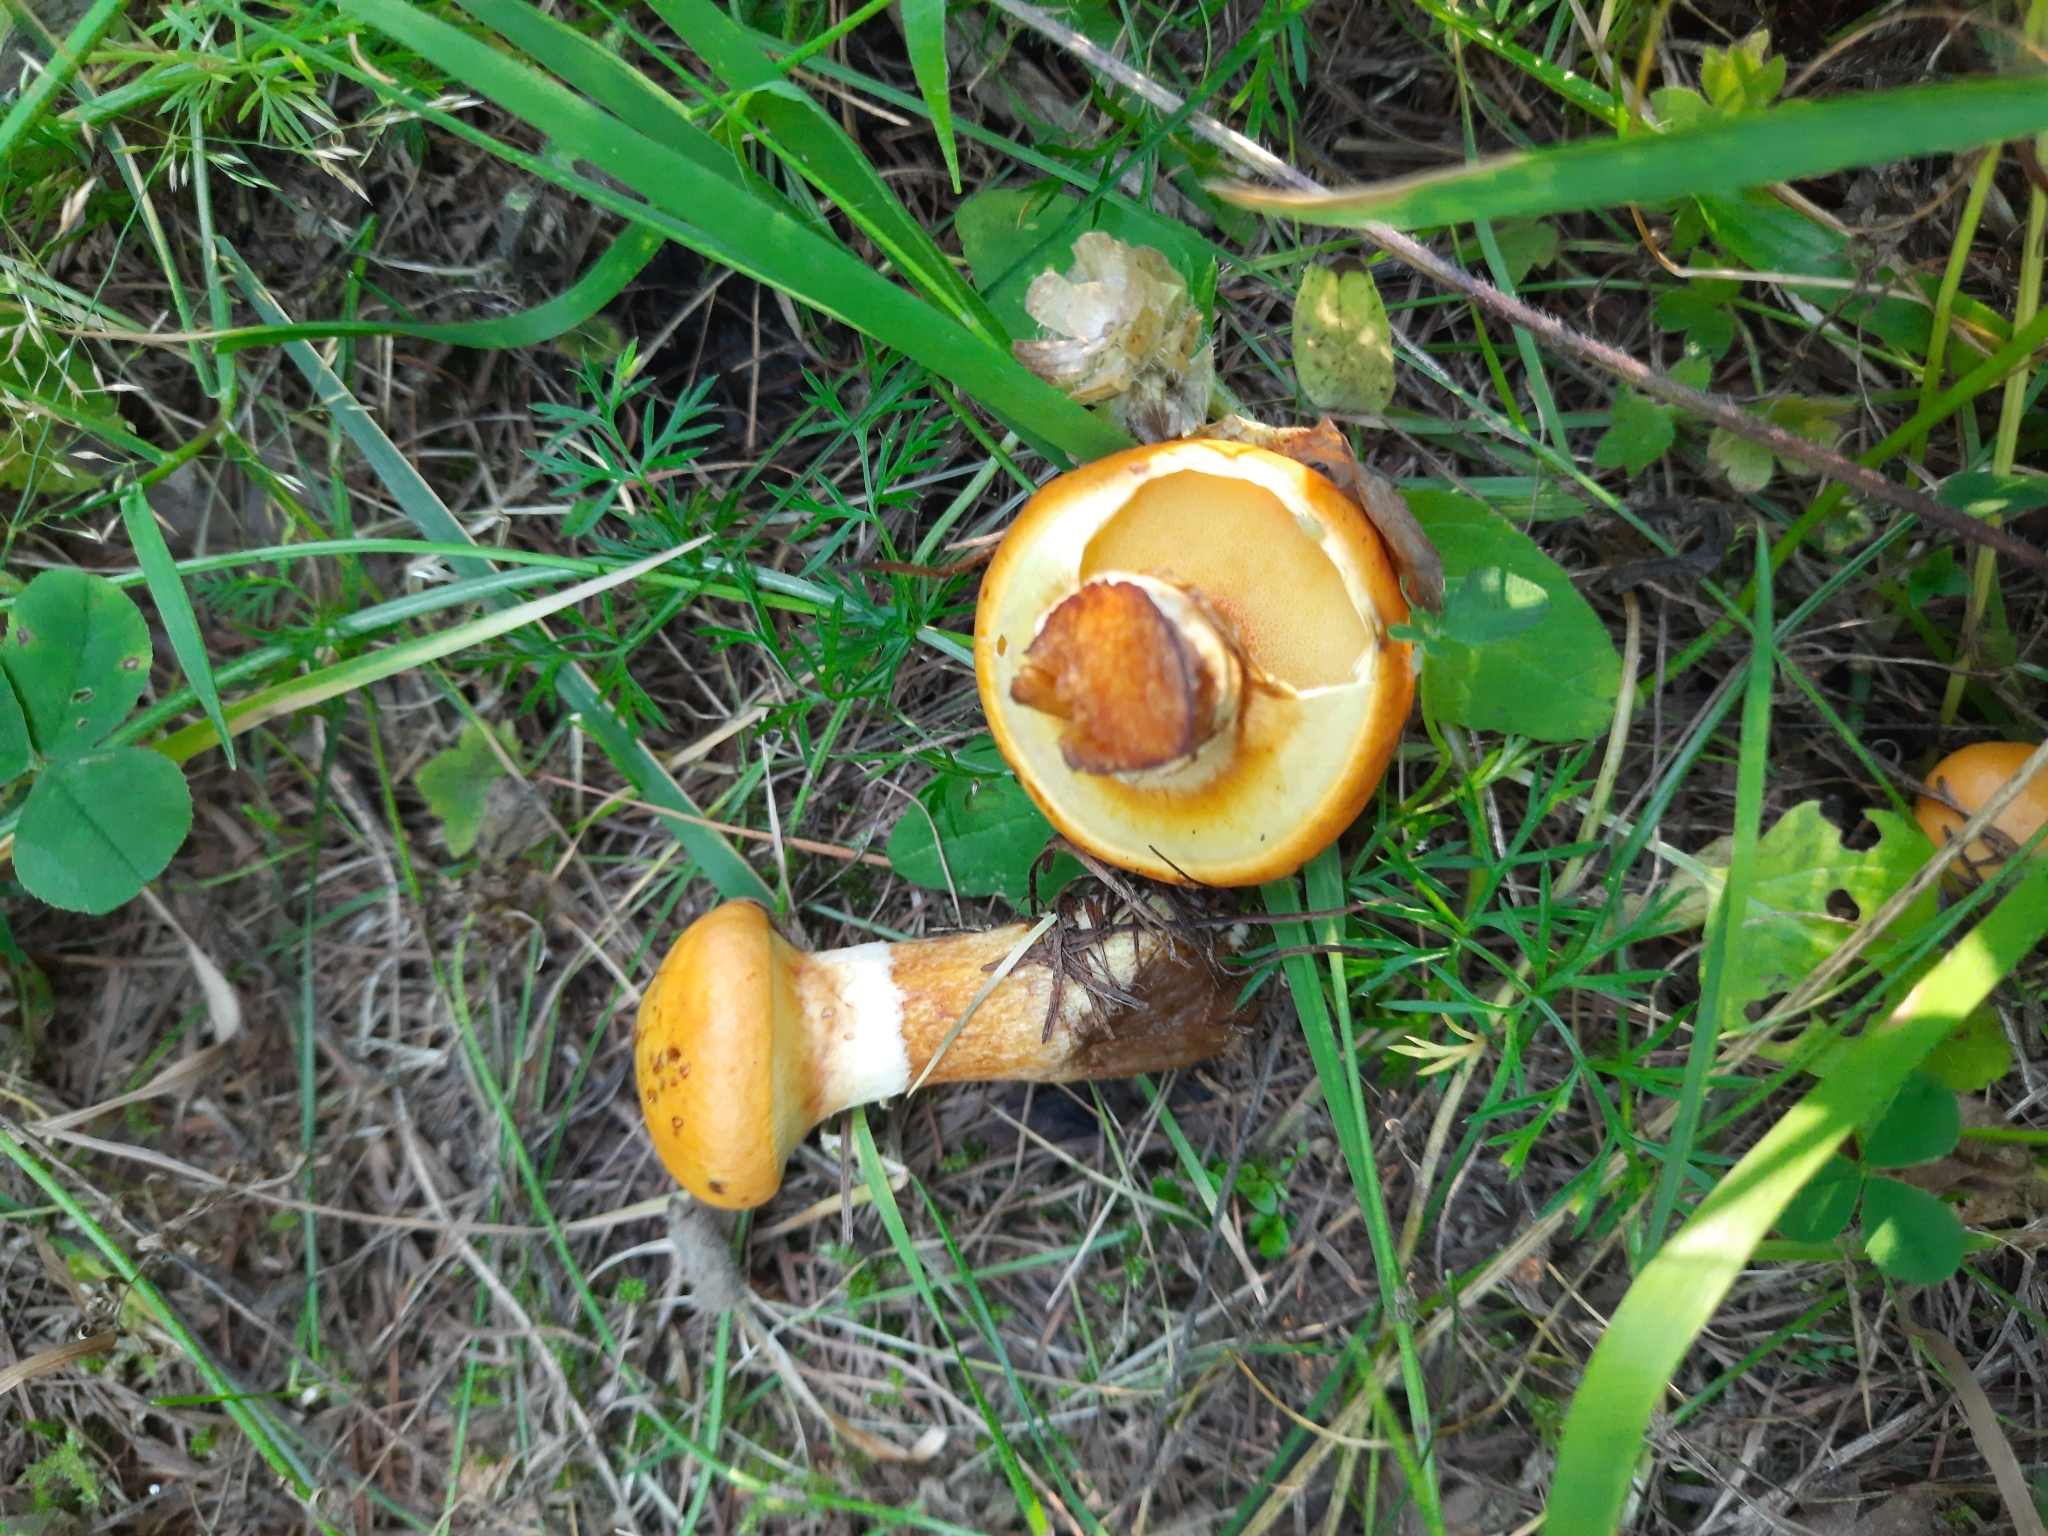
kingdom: Fungi
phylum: Basidiomycota
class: Agaricomycetes
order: Boletales
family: Suillaceae
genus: Suillus
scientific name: Suillus grevillei
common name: Larch bolete
